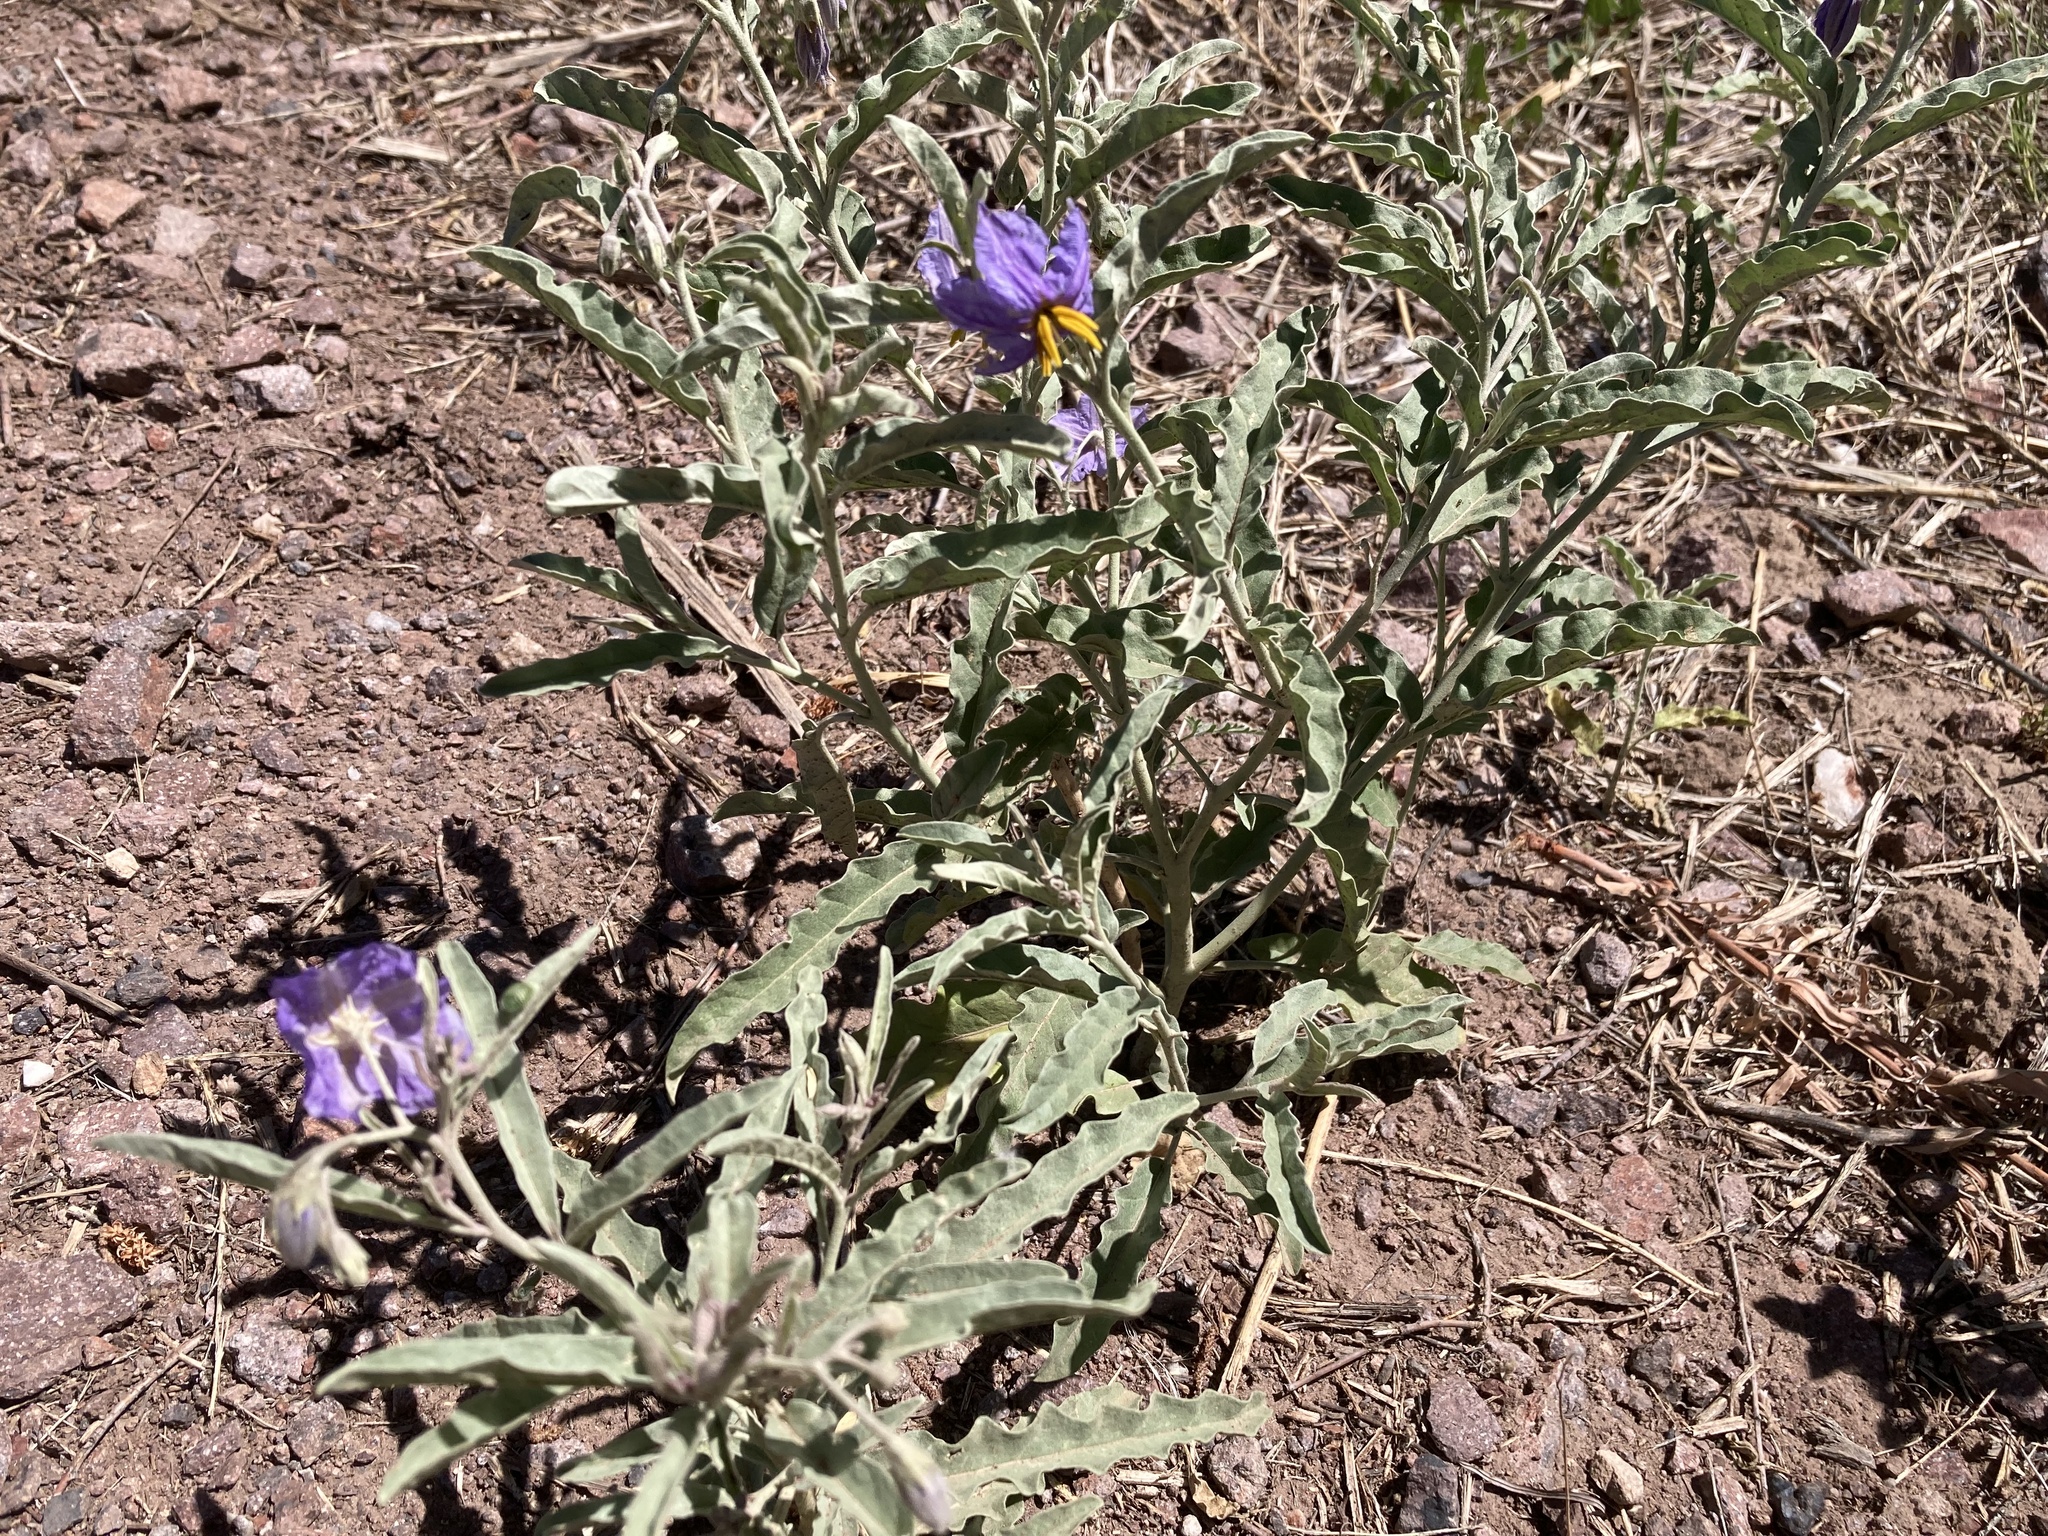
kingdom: Plantae
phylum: Tracheophyta
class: Magnoliopsida
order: Solanales
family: Solanaceae
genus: Solanum
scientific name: Solanum elaeagnifolium
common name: Silverleaf nightshade
